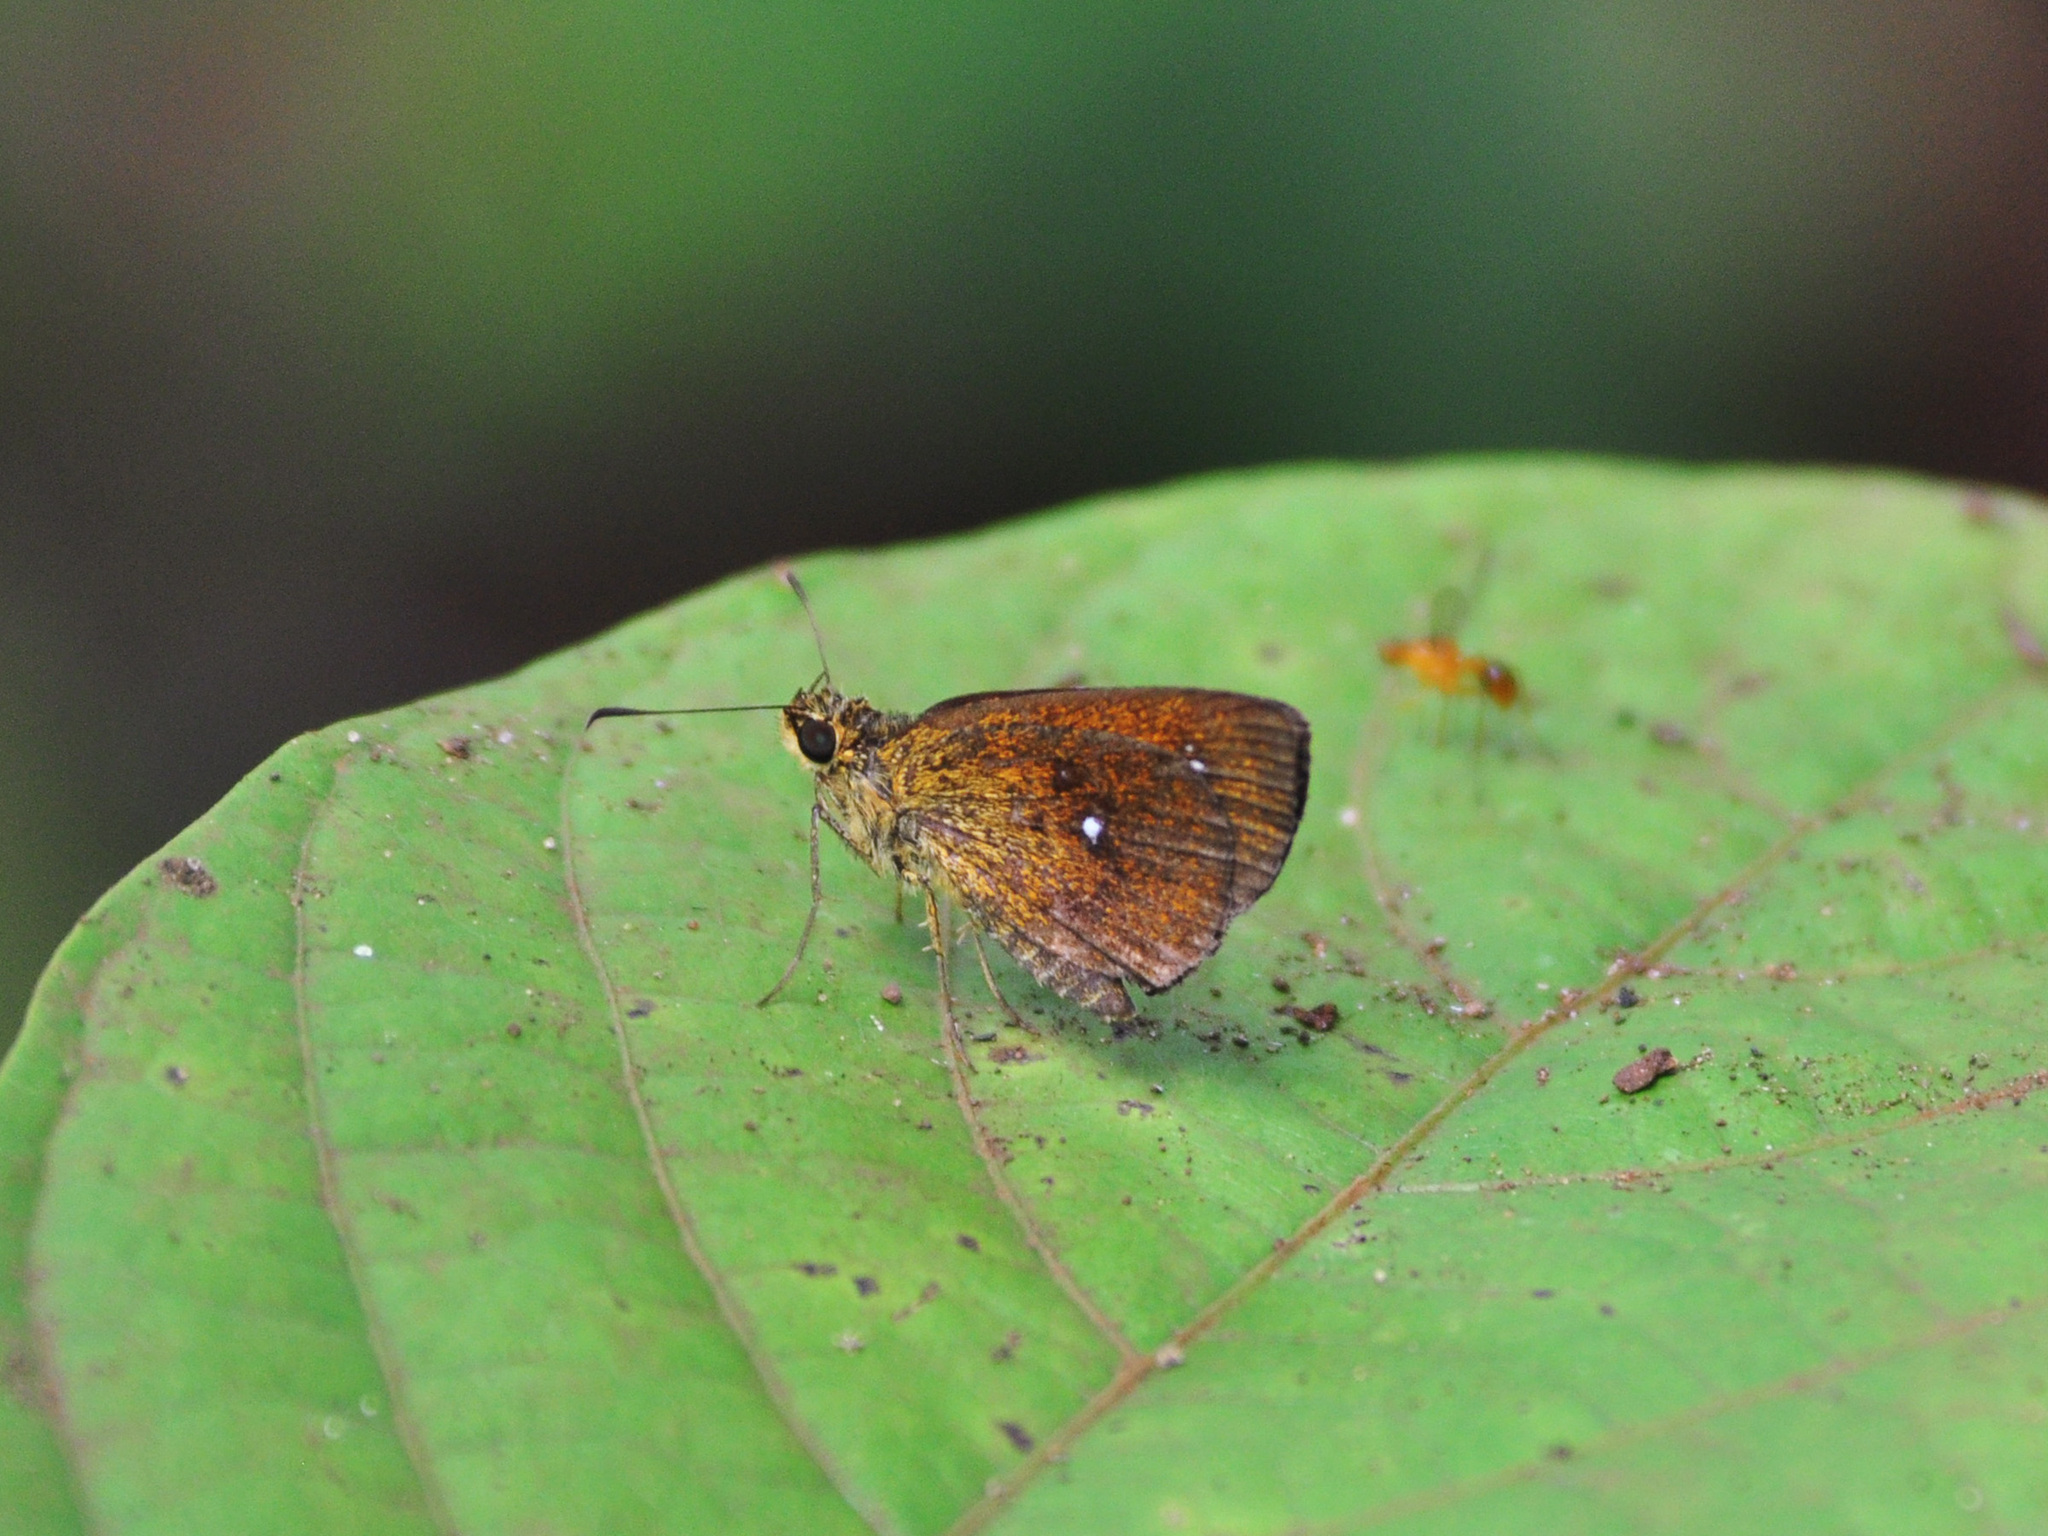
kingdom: Animalia
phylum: Arthropoda
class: Insecta
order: Lepidoptera
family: Hesperiidae
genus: Iambrix
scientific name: Iambrix salsala
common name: Chestnut bob
